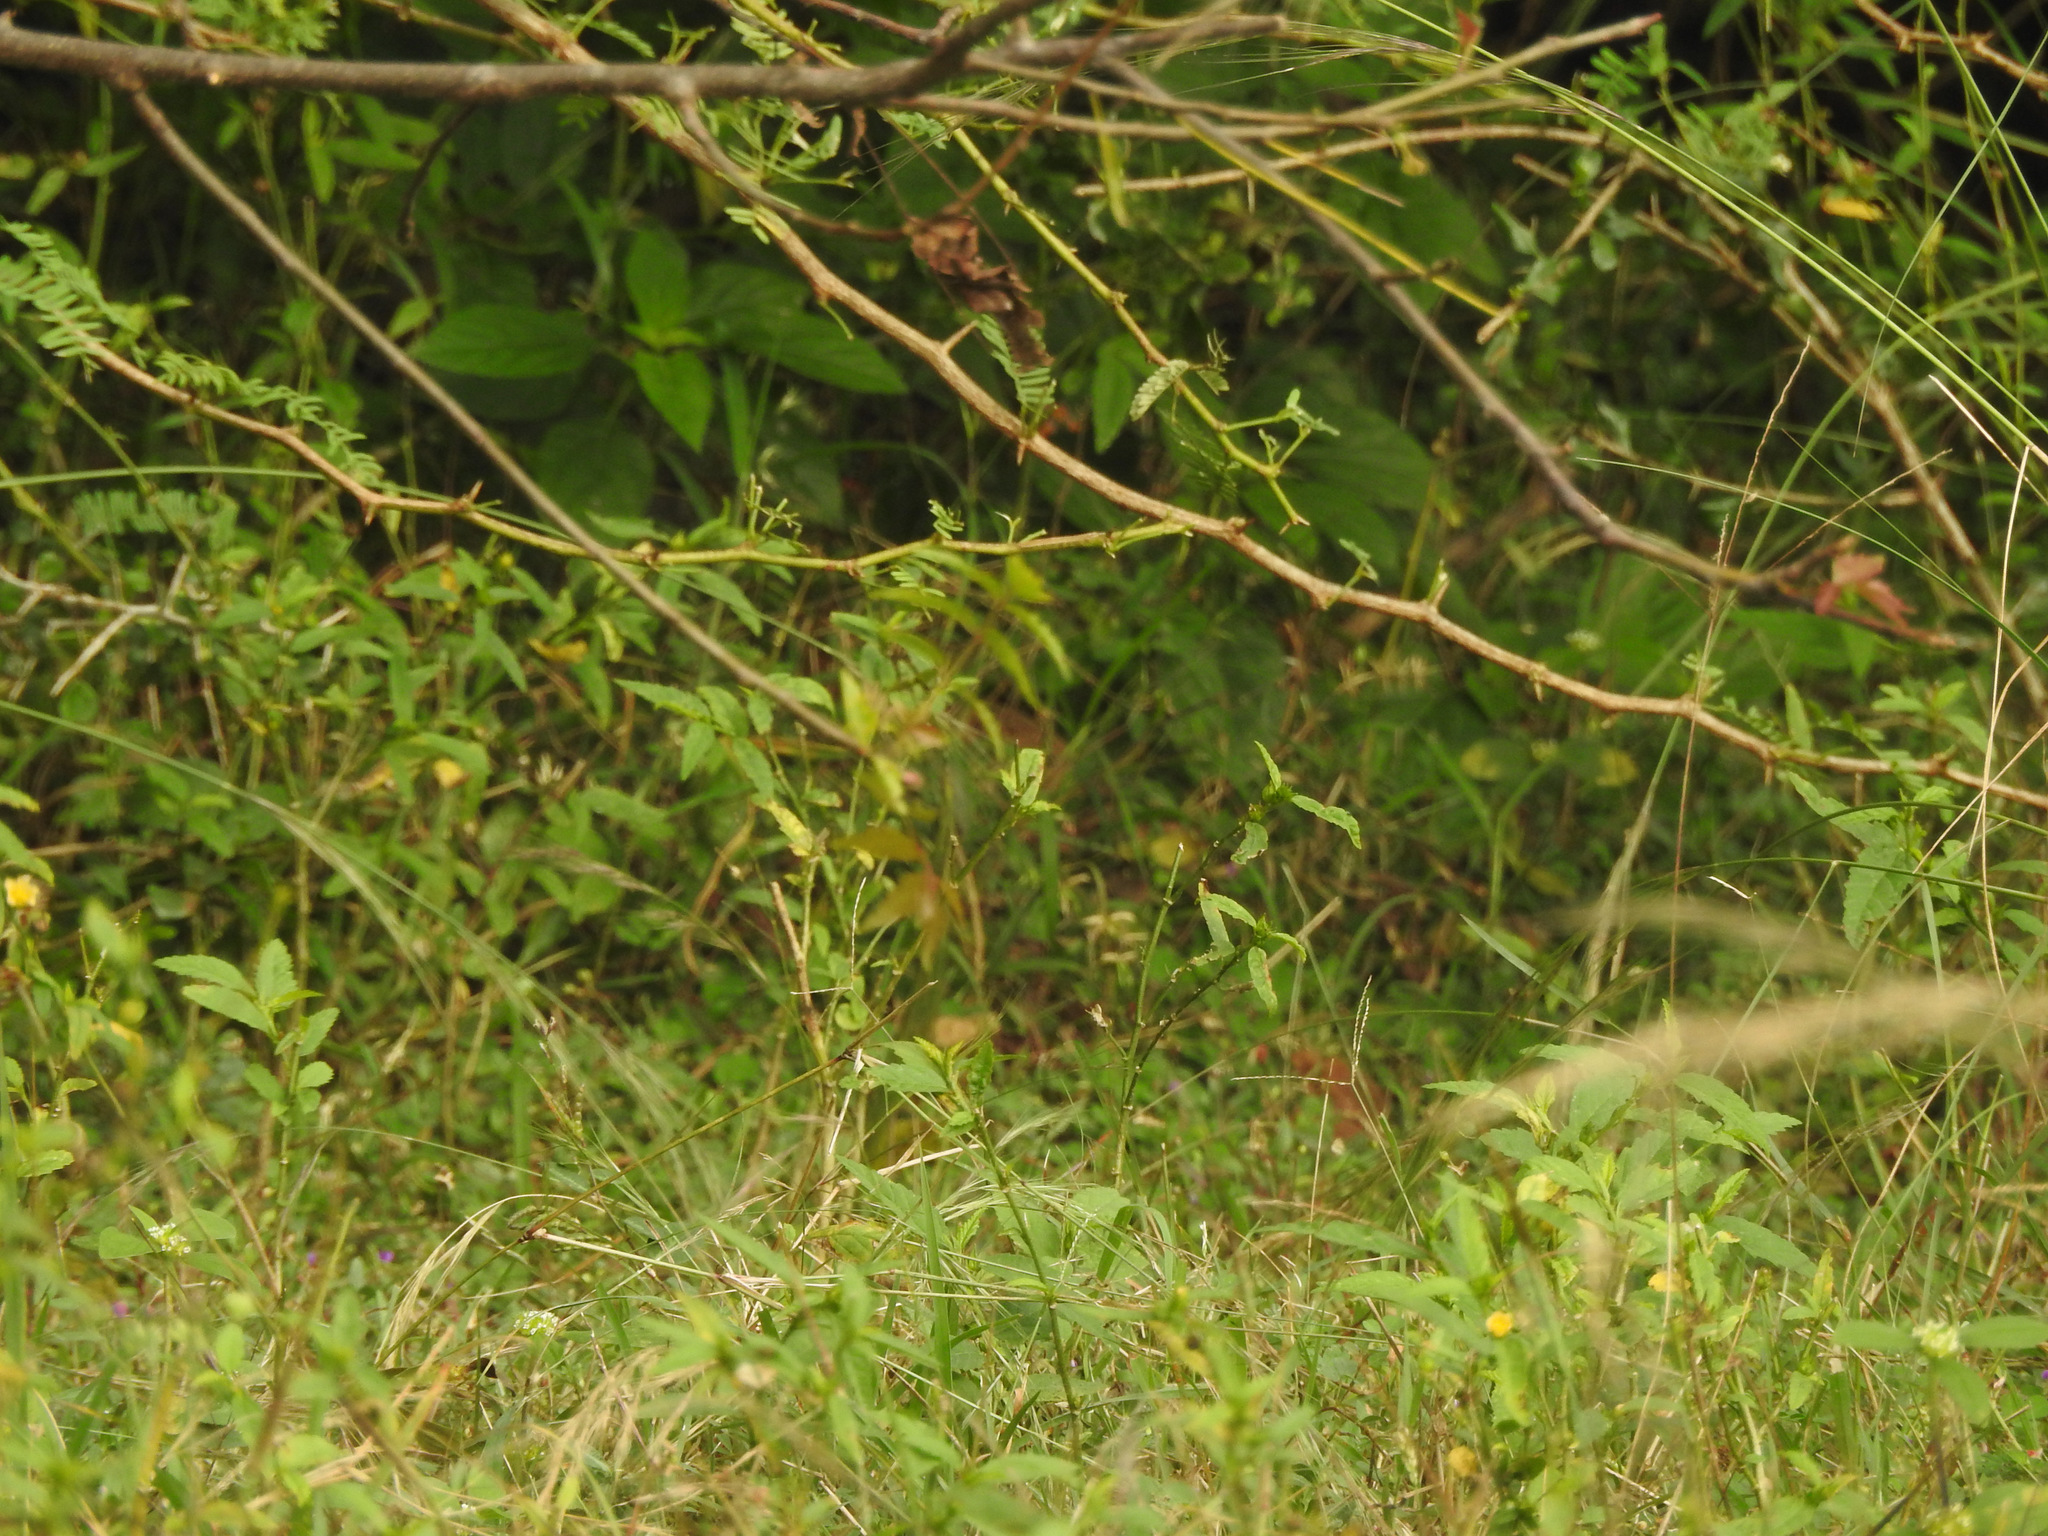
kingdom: Animalia
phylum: Chordata
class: Aves
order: Galliformes
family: Phasianidae
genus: Perdicula
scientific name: Perdicula asiatica
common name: Jungle bush quail
